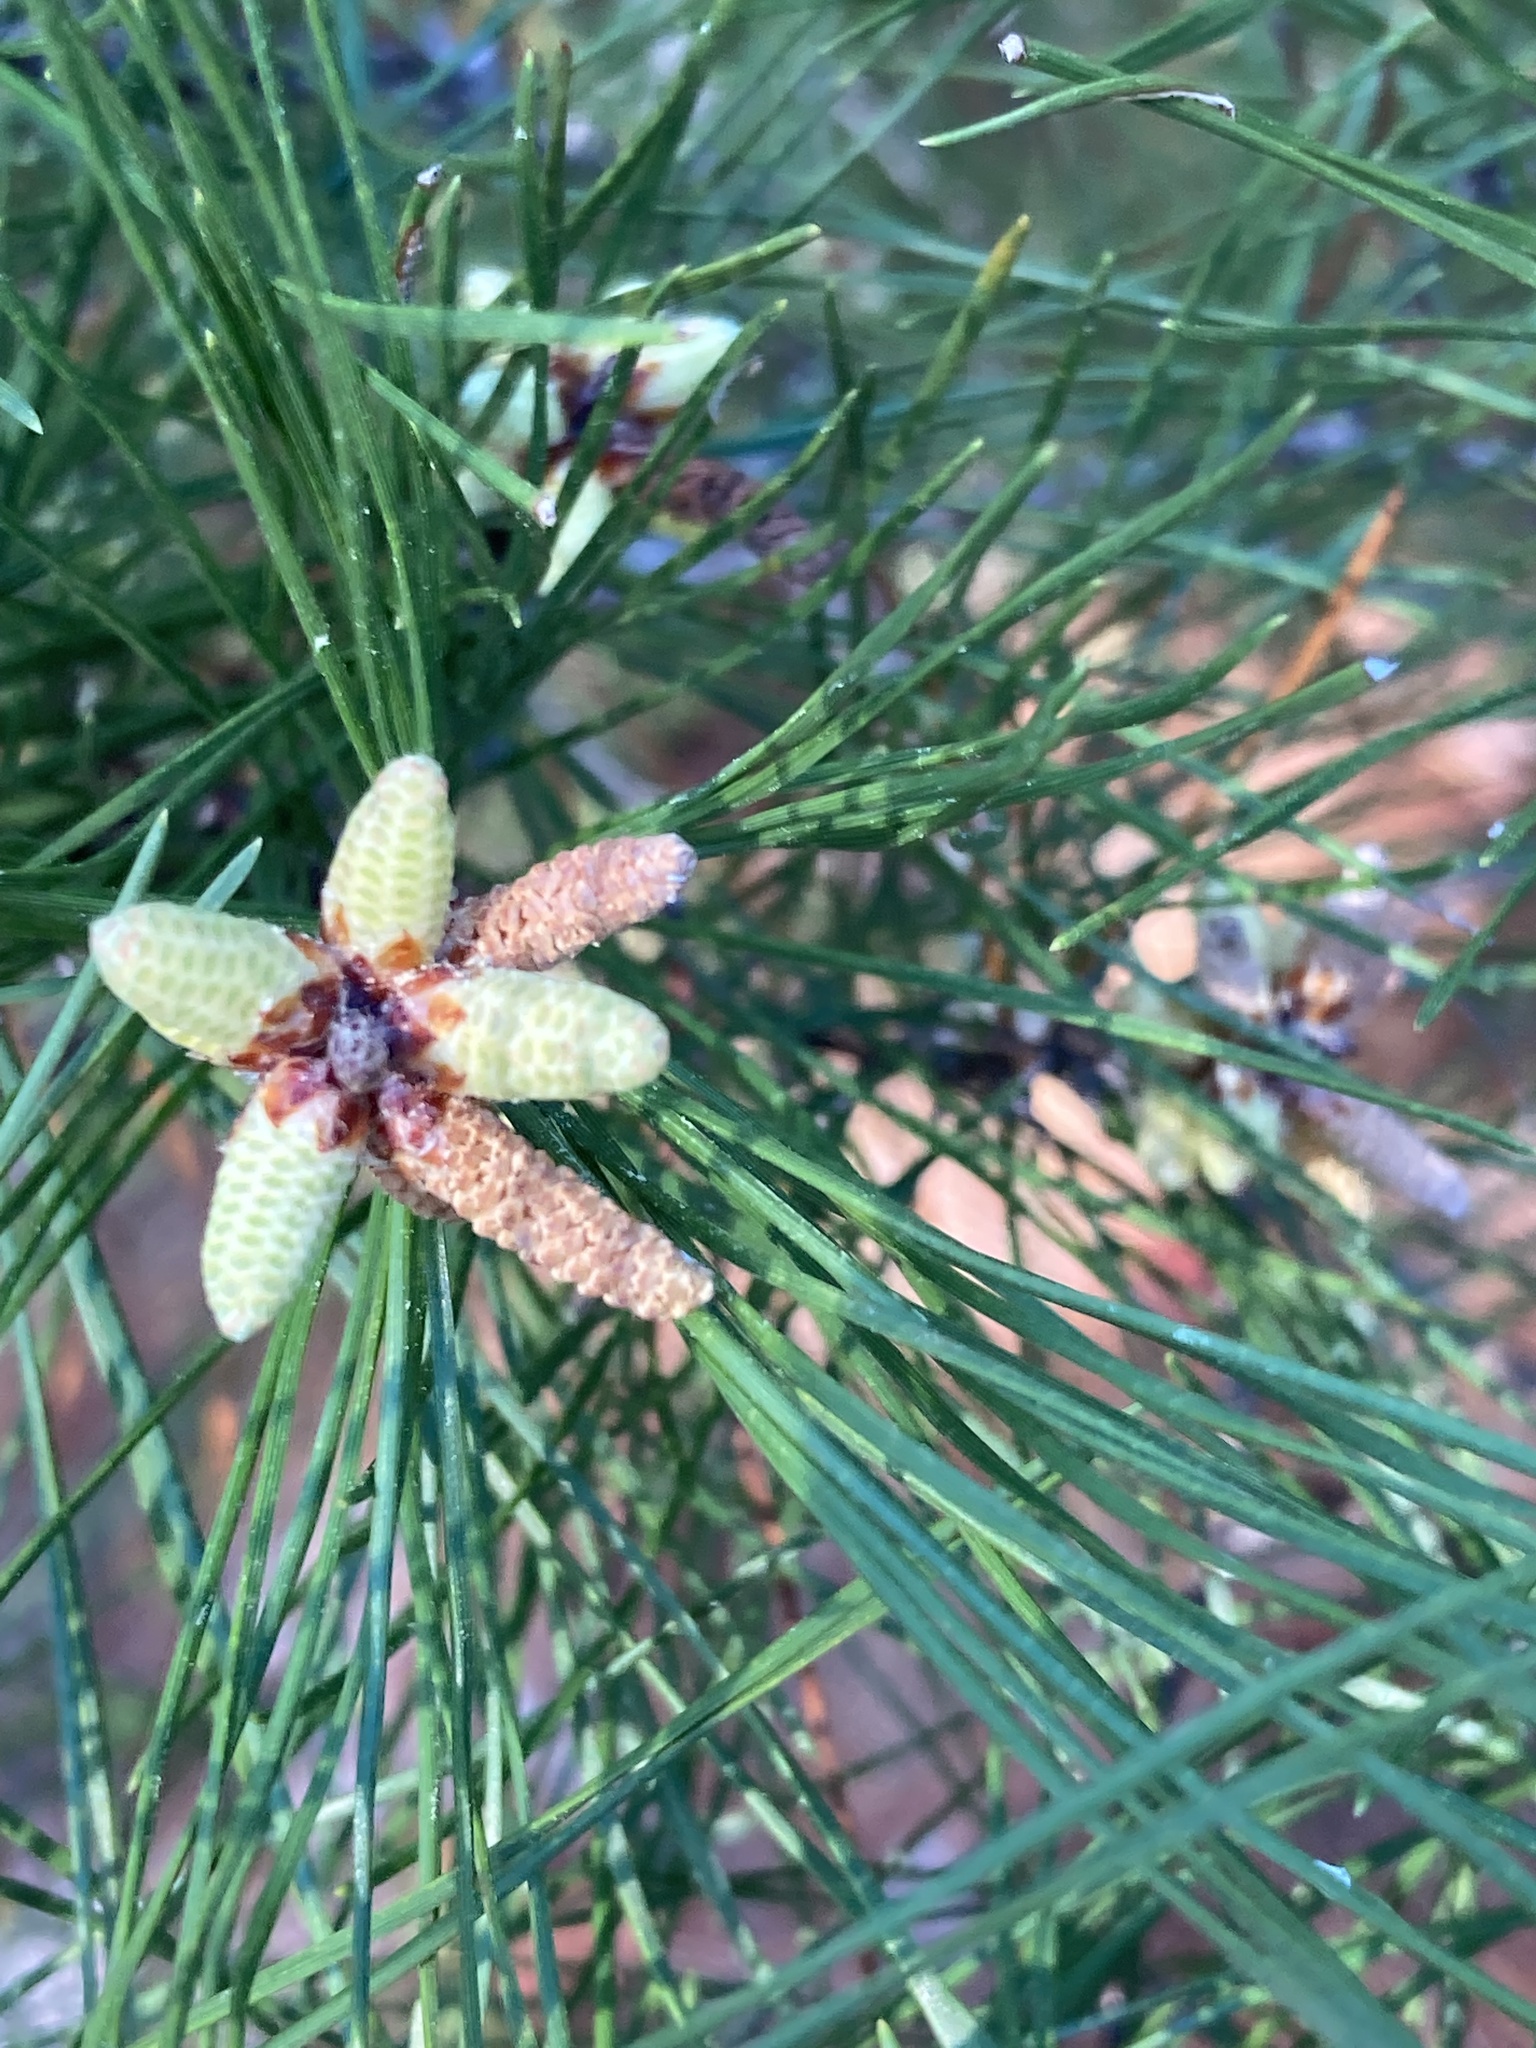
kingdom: Plantae
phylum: Tracheophyta
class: Pinopsida
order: Pinales
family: Pinaceae
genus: Pinus
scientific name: Pinus clausa
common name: Sand pine
